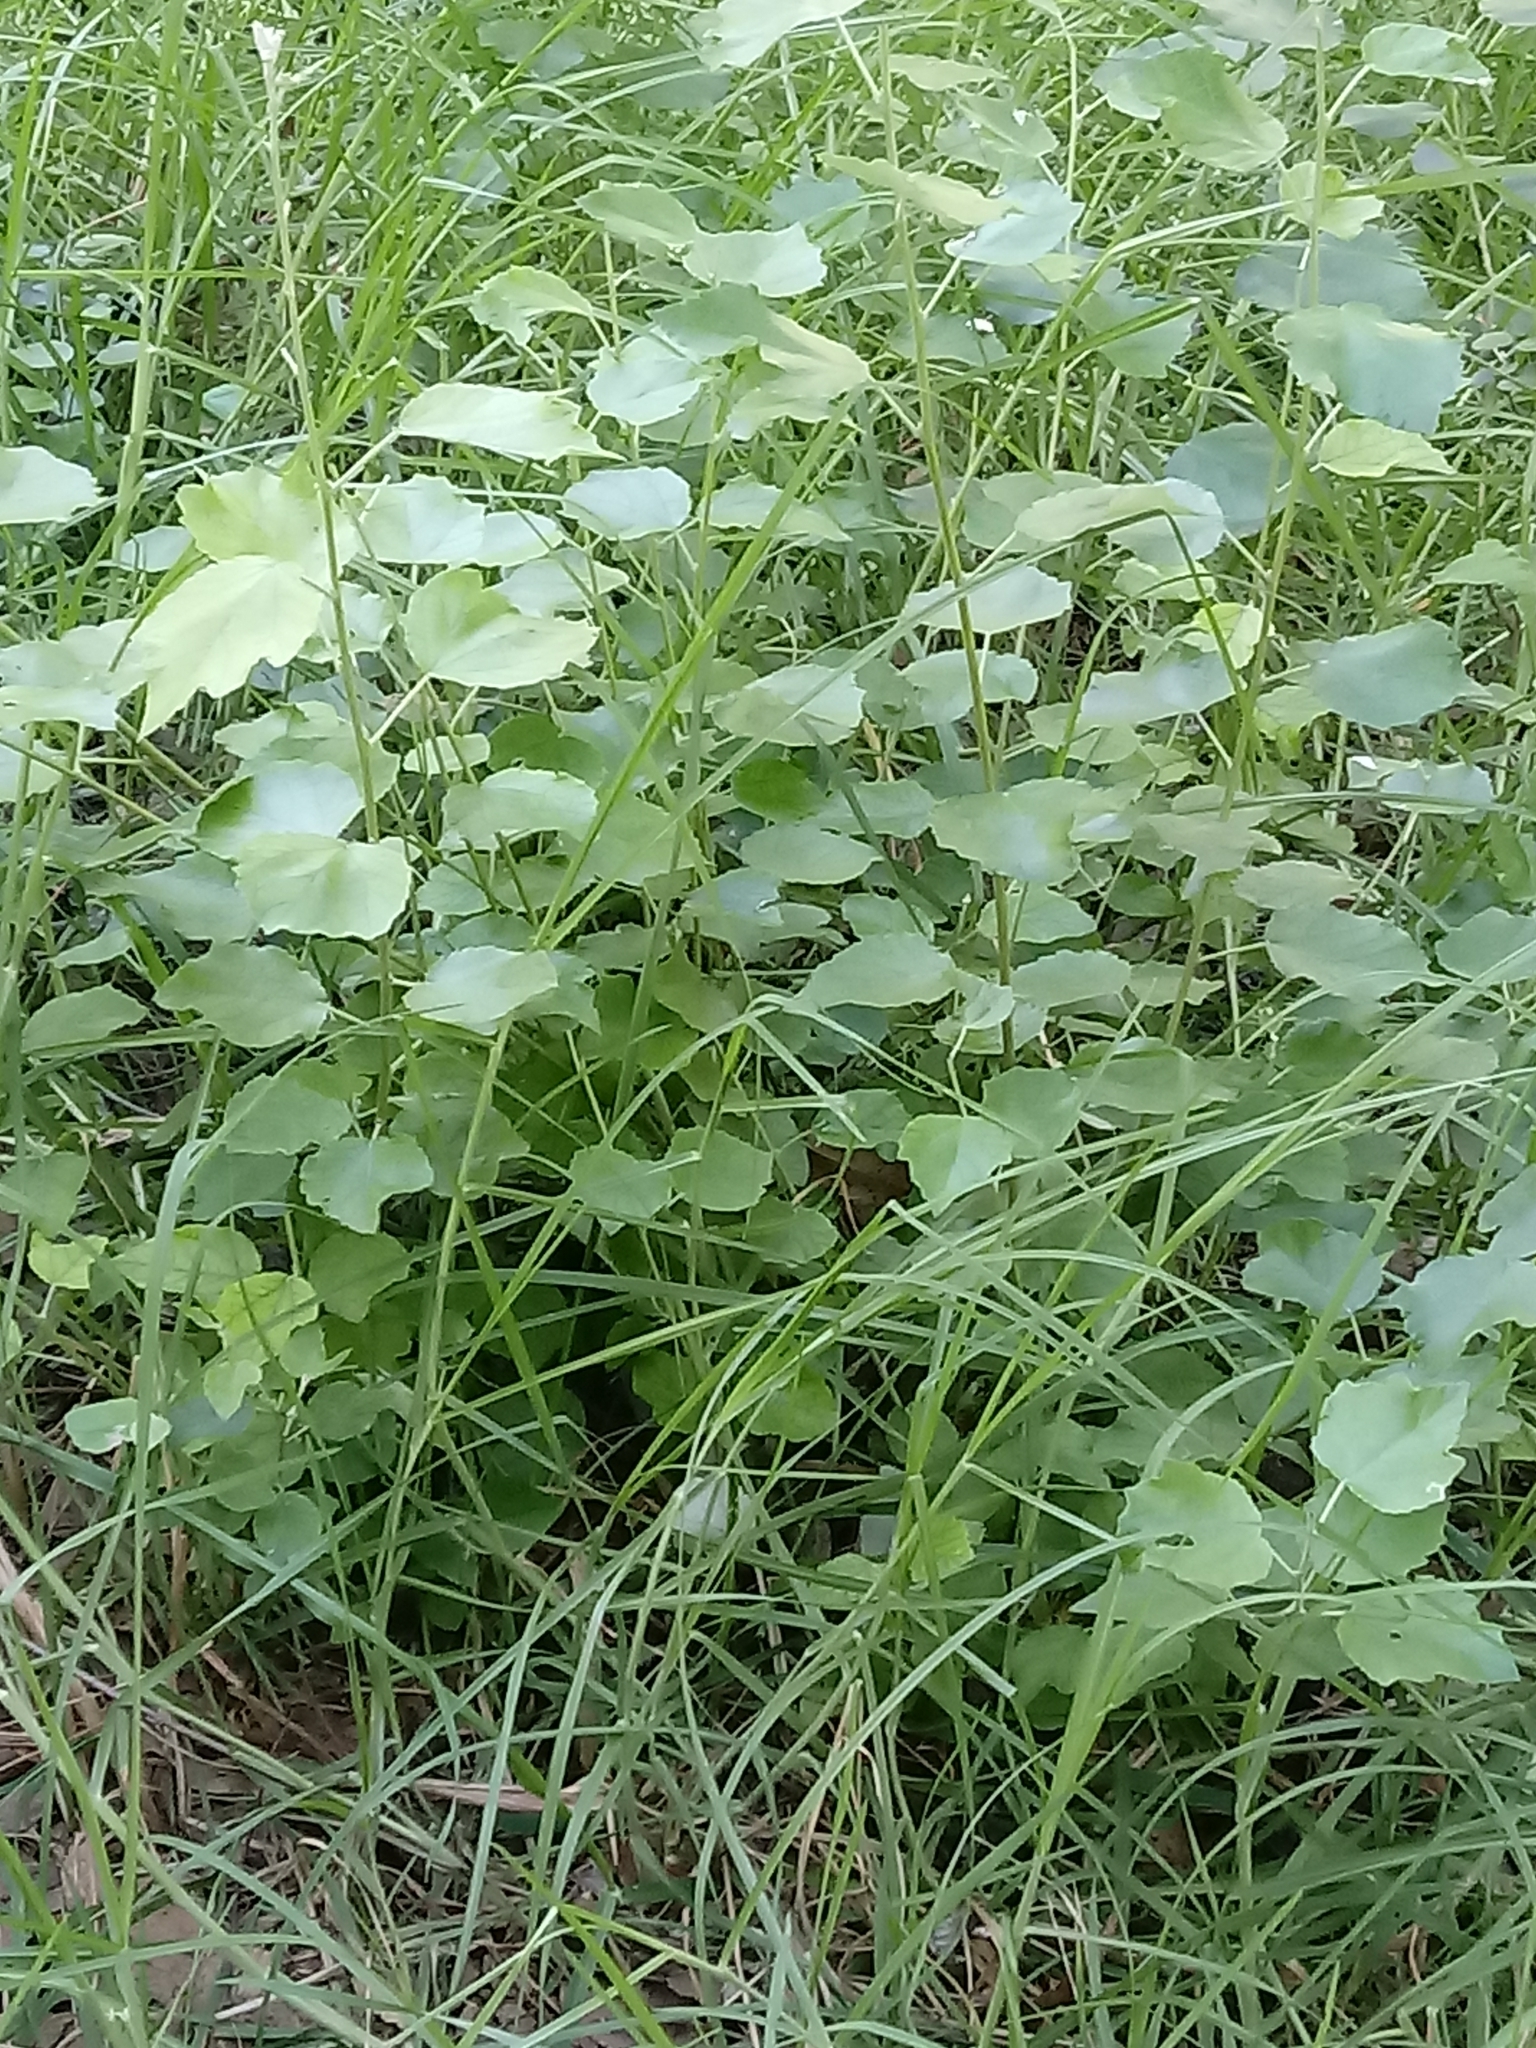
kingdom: Plantae
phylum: Tracheophyta
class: Magnoliopsida
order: Malpighiales
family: Salicaceae
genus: Populus
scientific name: Populus alba
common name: White poplar
